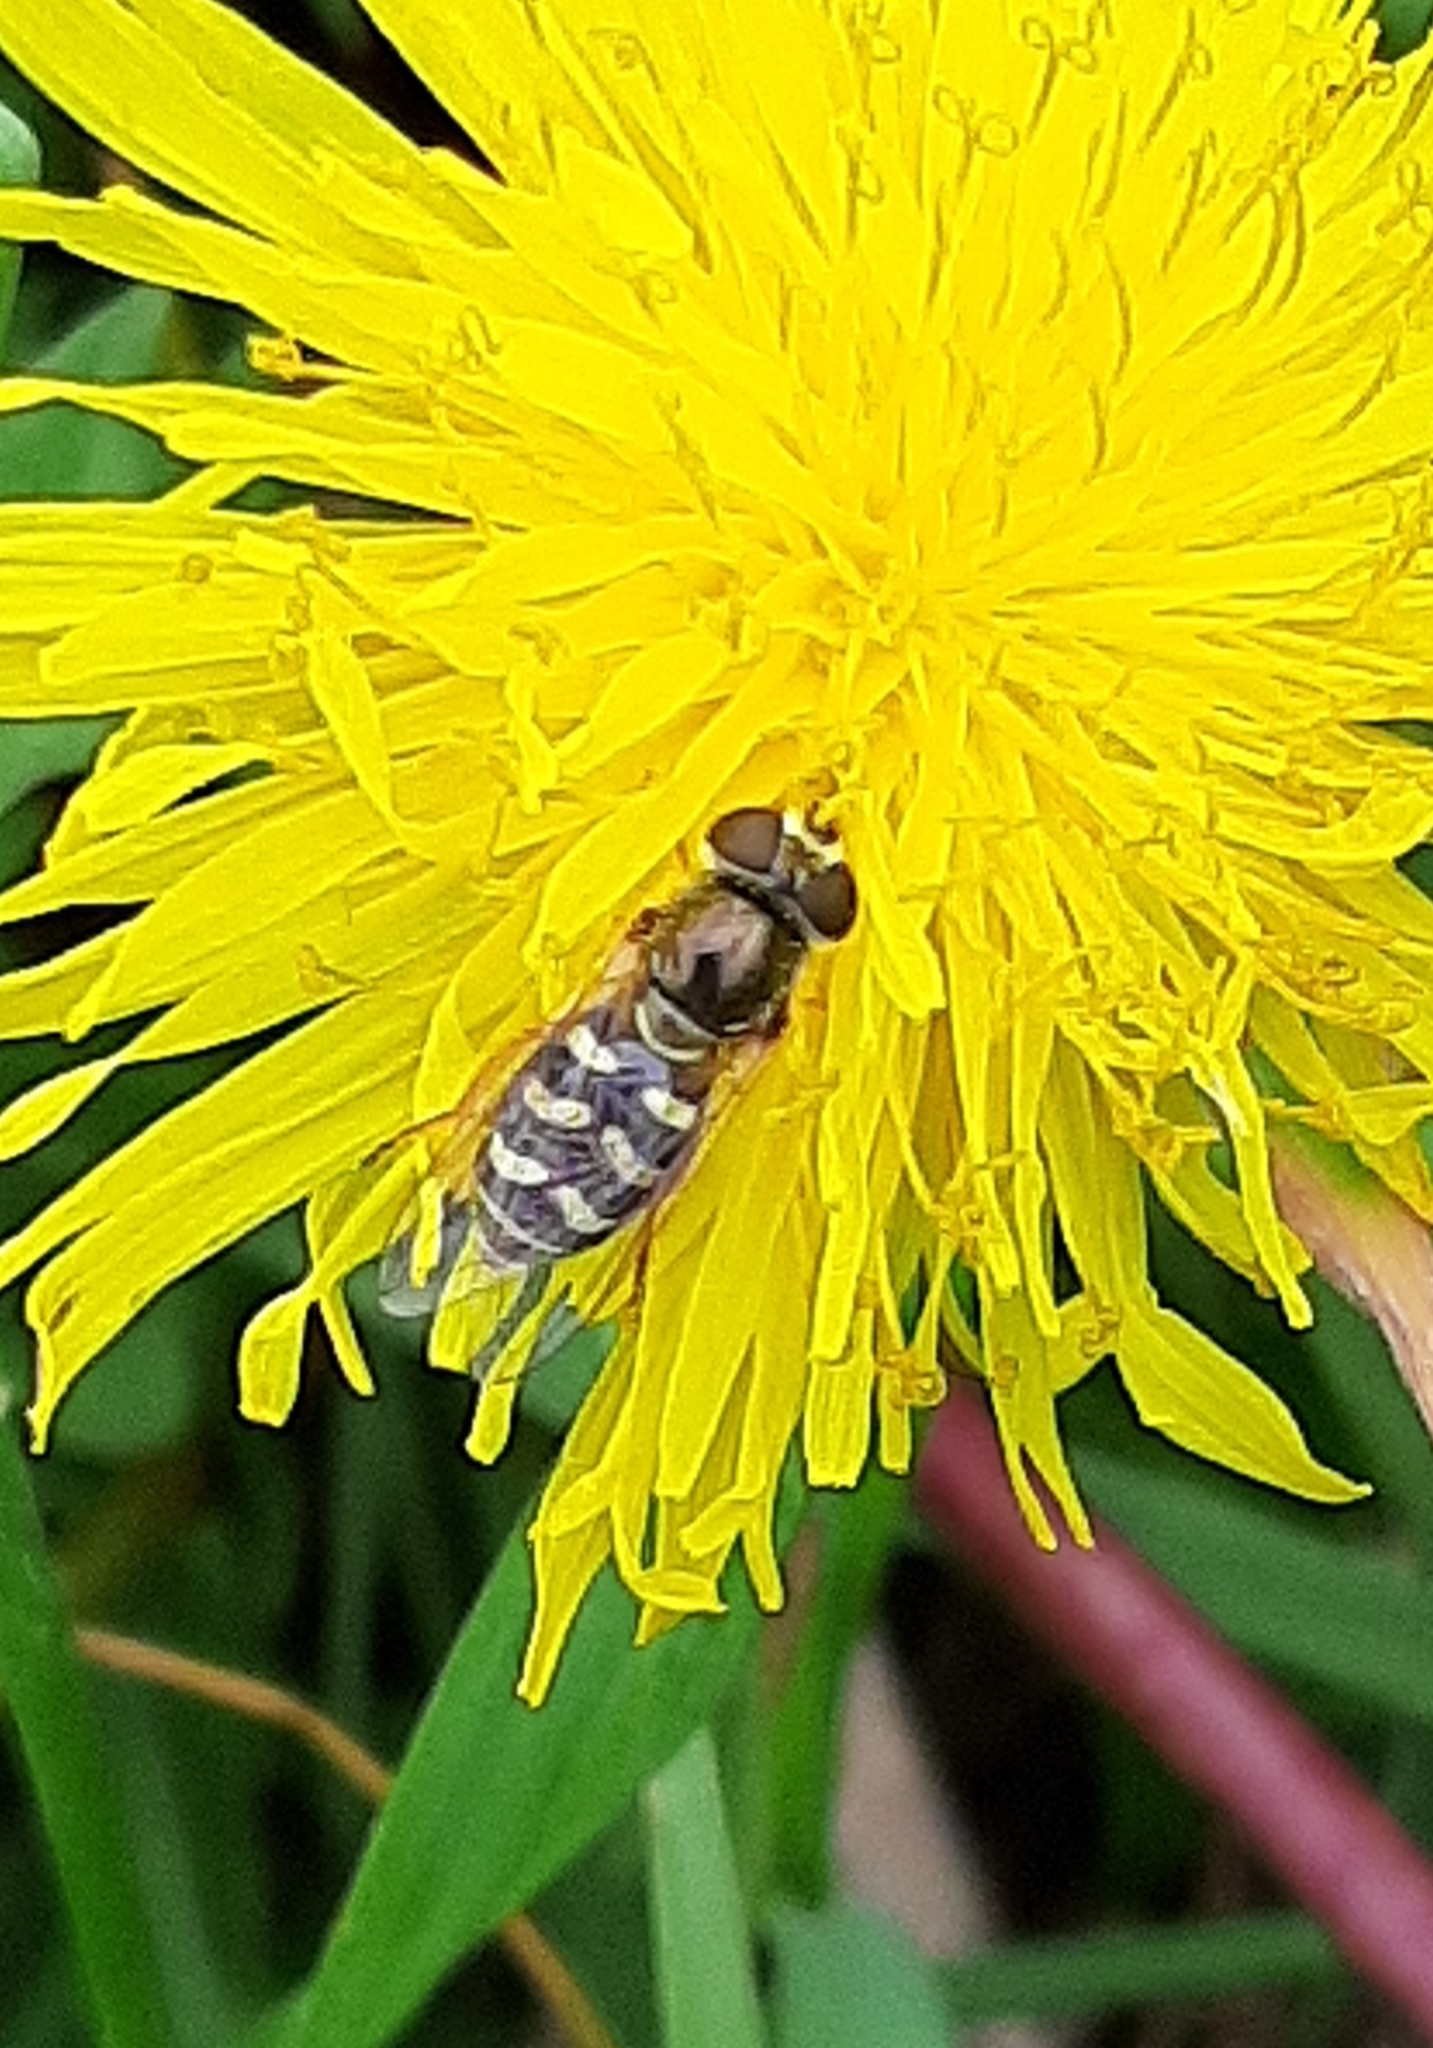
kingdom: Animalia
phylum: Arthropoda
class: Insecta
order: Diptera
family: Syrphidae
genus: Eupeodes
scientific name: Eupeodes volucris
